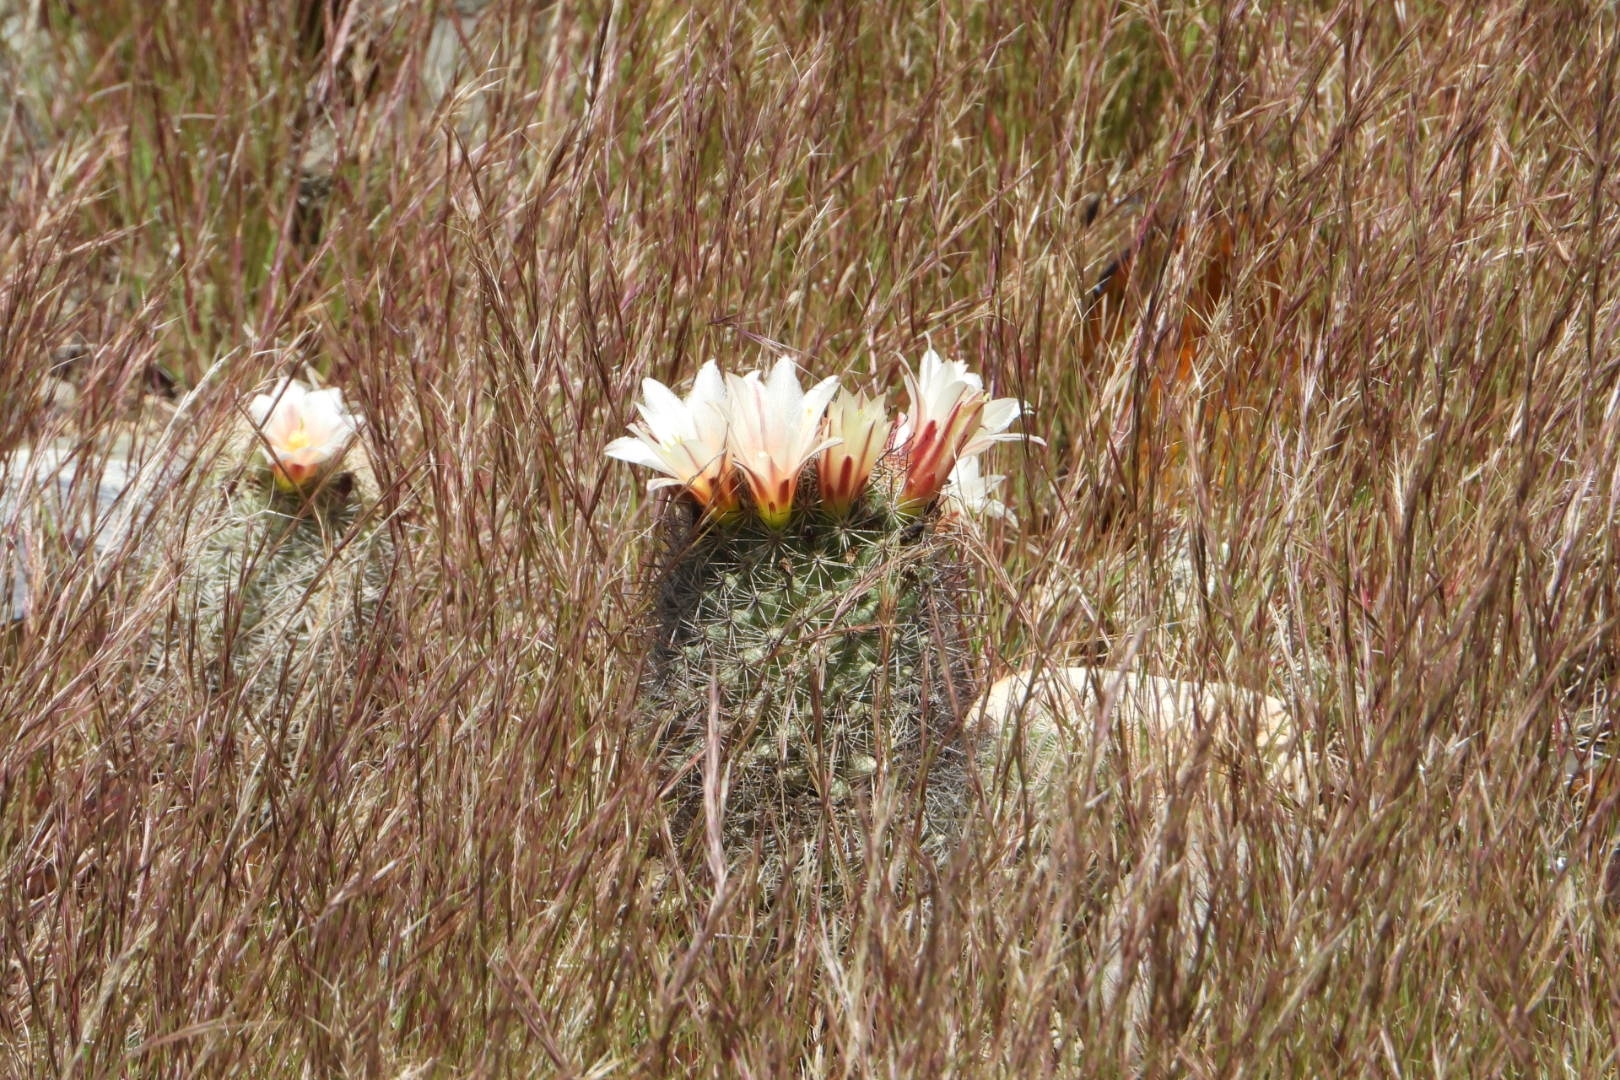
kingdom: Plantae
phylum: Tracheophyta
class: Magnoliopsida
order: Caryophyllales
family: Cactaceae
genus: Cochemiea
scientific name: Cochemiea dioica
